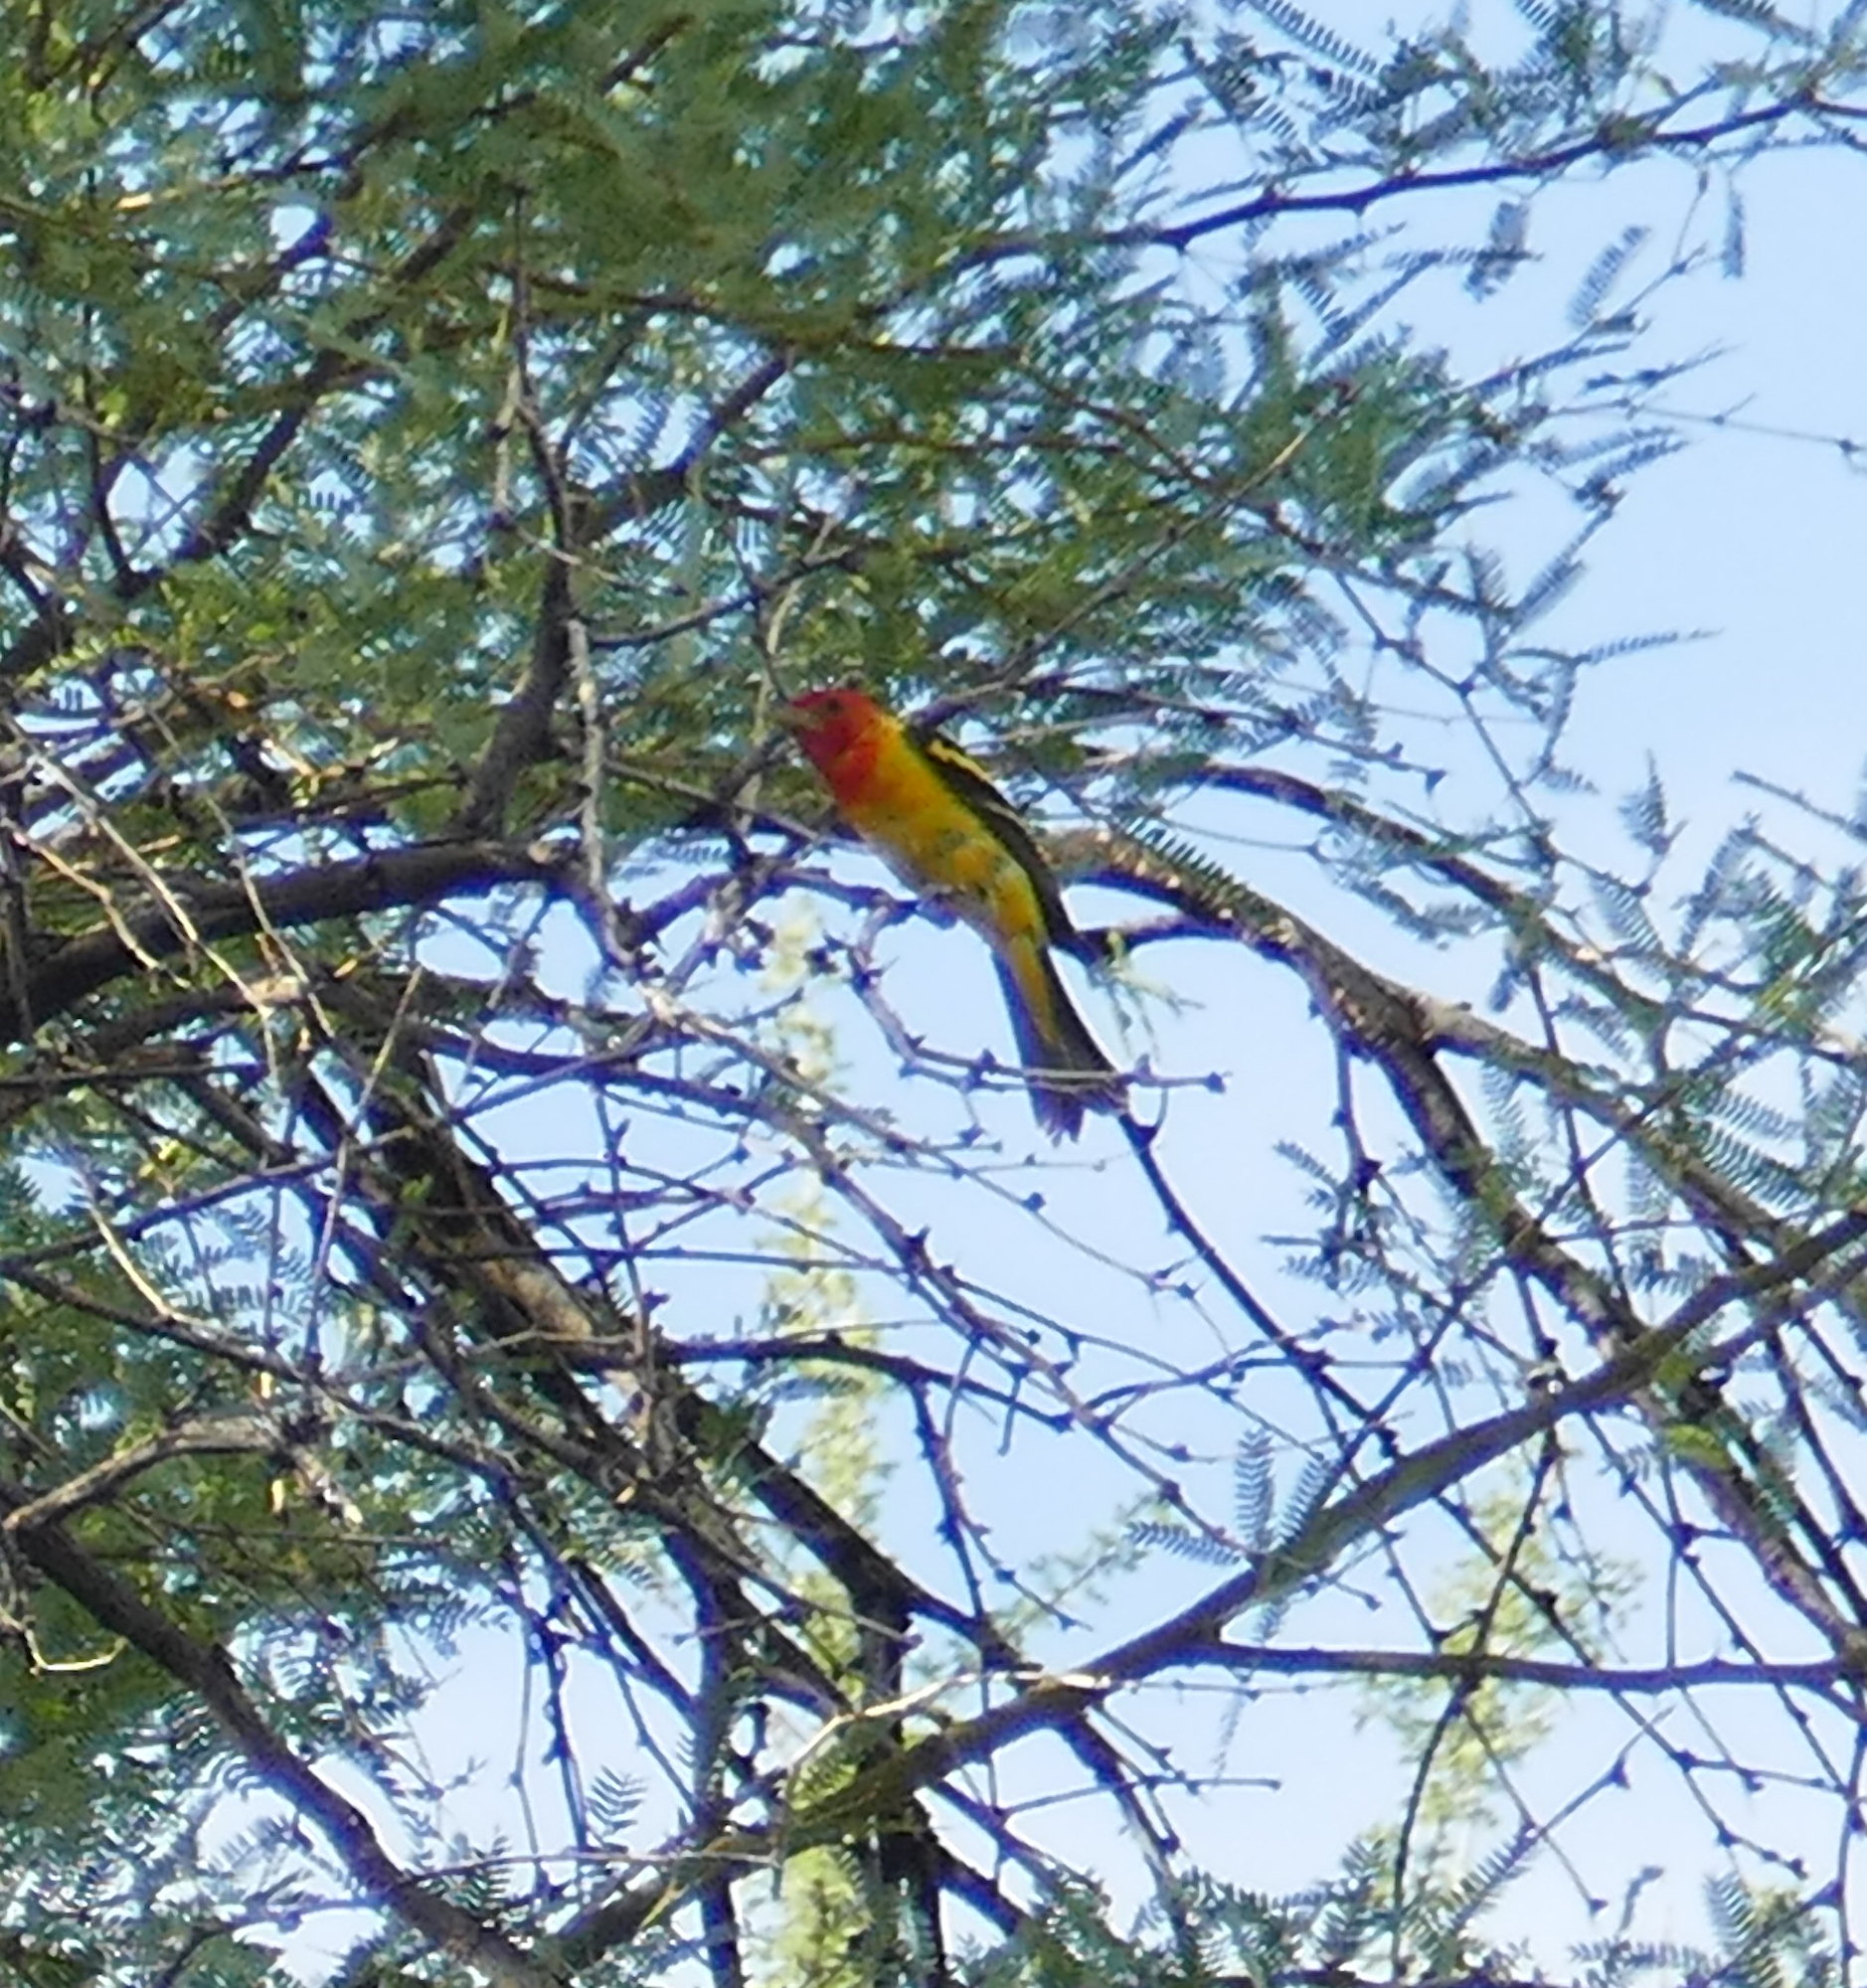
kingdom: Animalia
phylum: Chordata
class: Aves
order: Passeriformes
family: Cardinalidae
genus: Piranga
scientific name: Piranga ludoviciana
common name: Western tanager
